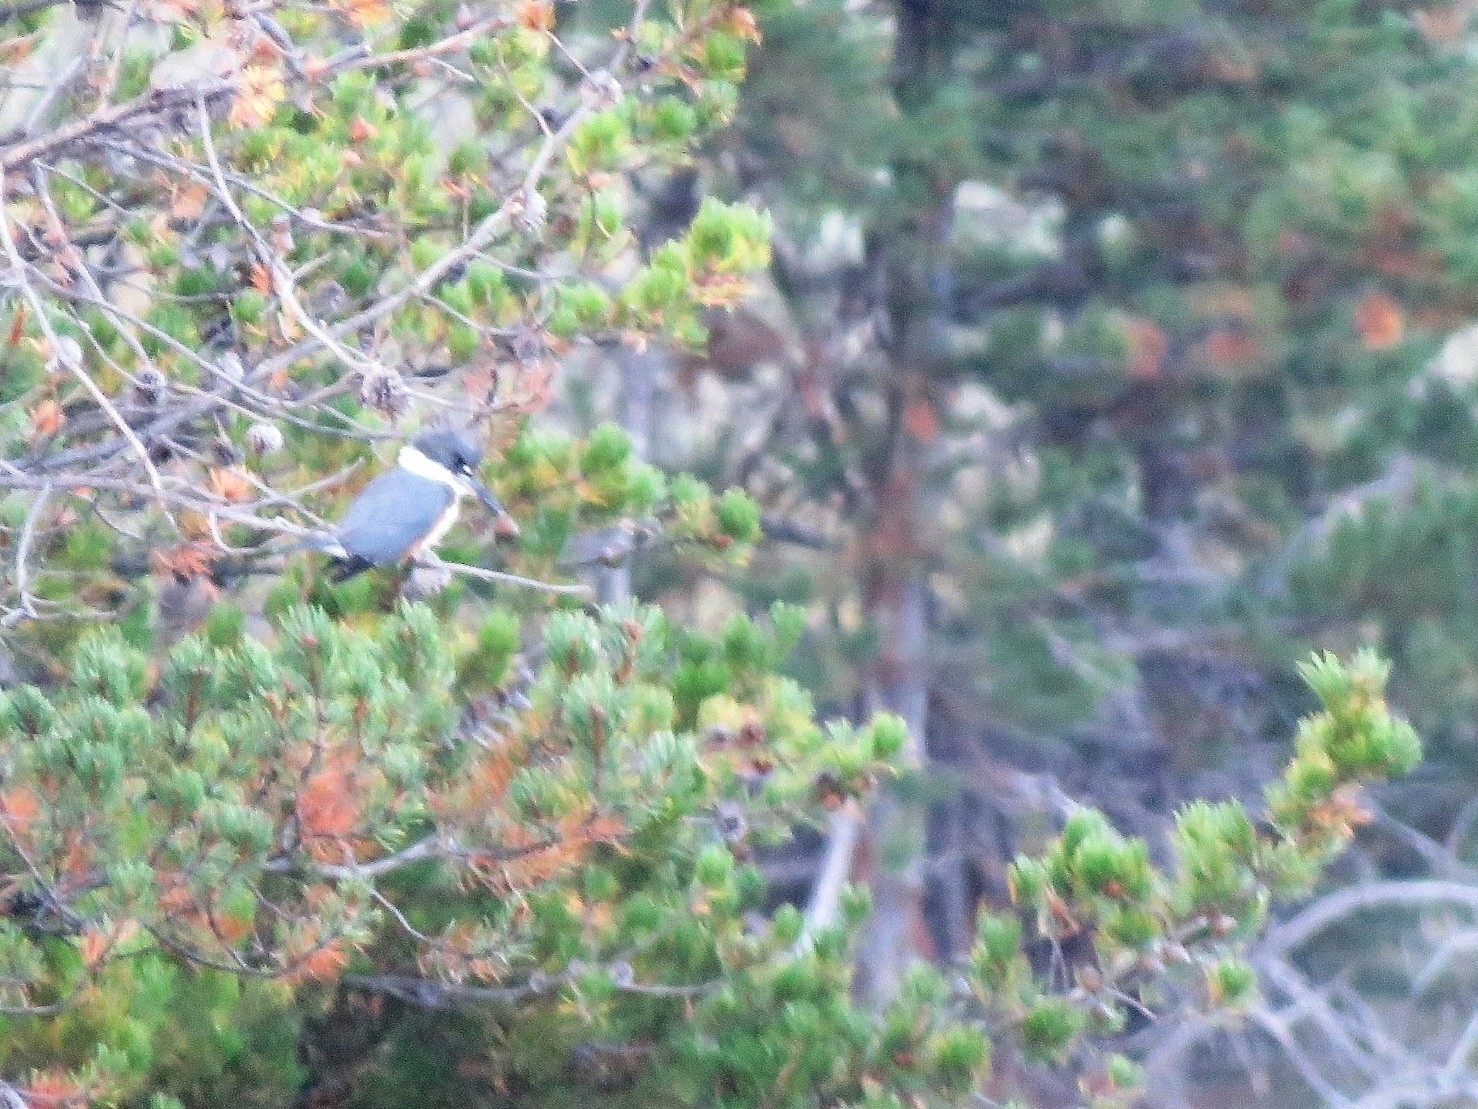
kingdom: Animalia
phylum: Chordata
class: Aves
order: Coraciiformes
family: Alcedinidae
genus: Megaceryle
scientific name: Megaceryle alcyon
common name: Belted kingfisher
